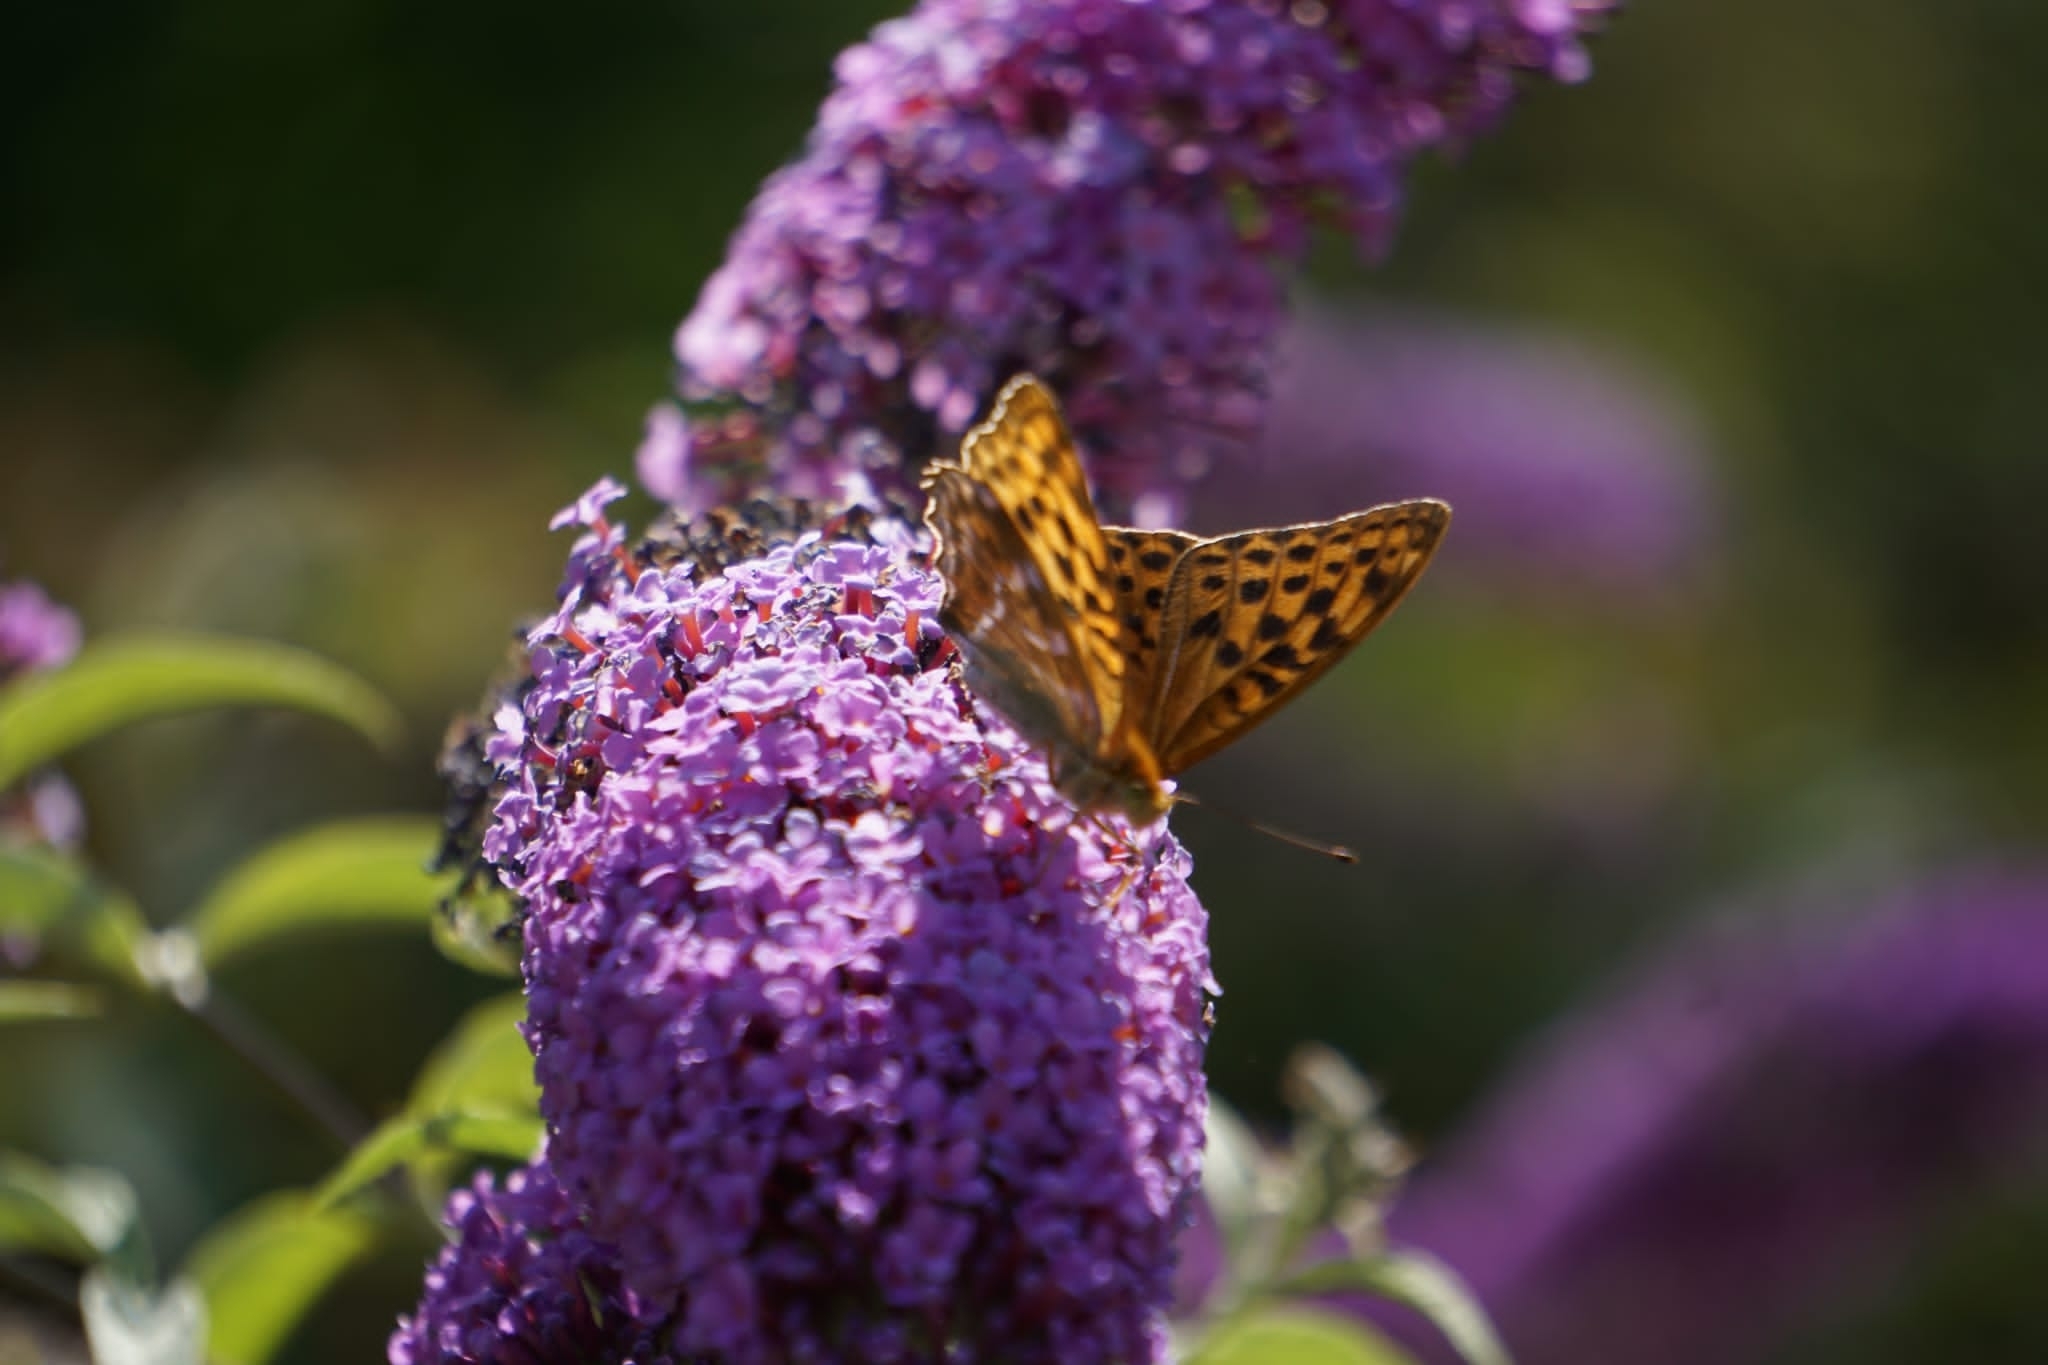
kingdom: Animalia
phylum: Arthropoda
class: Insecta
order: Lepidoptera
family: Nymphalidae
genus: Argynnis
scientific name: Argynnis paphia
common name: Silver-washed fritillary
